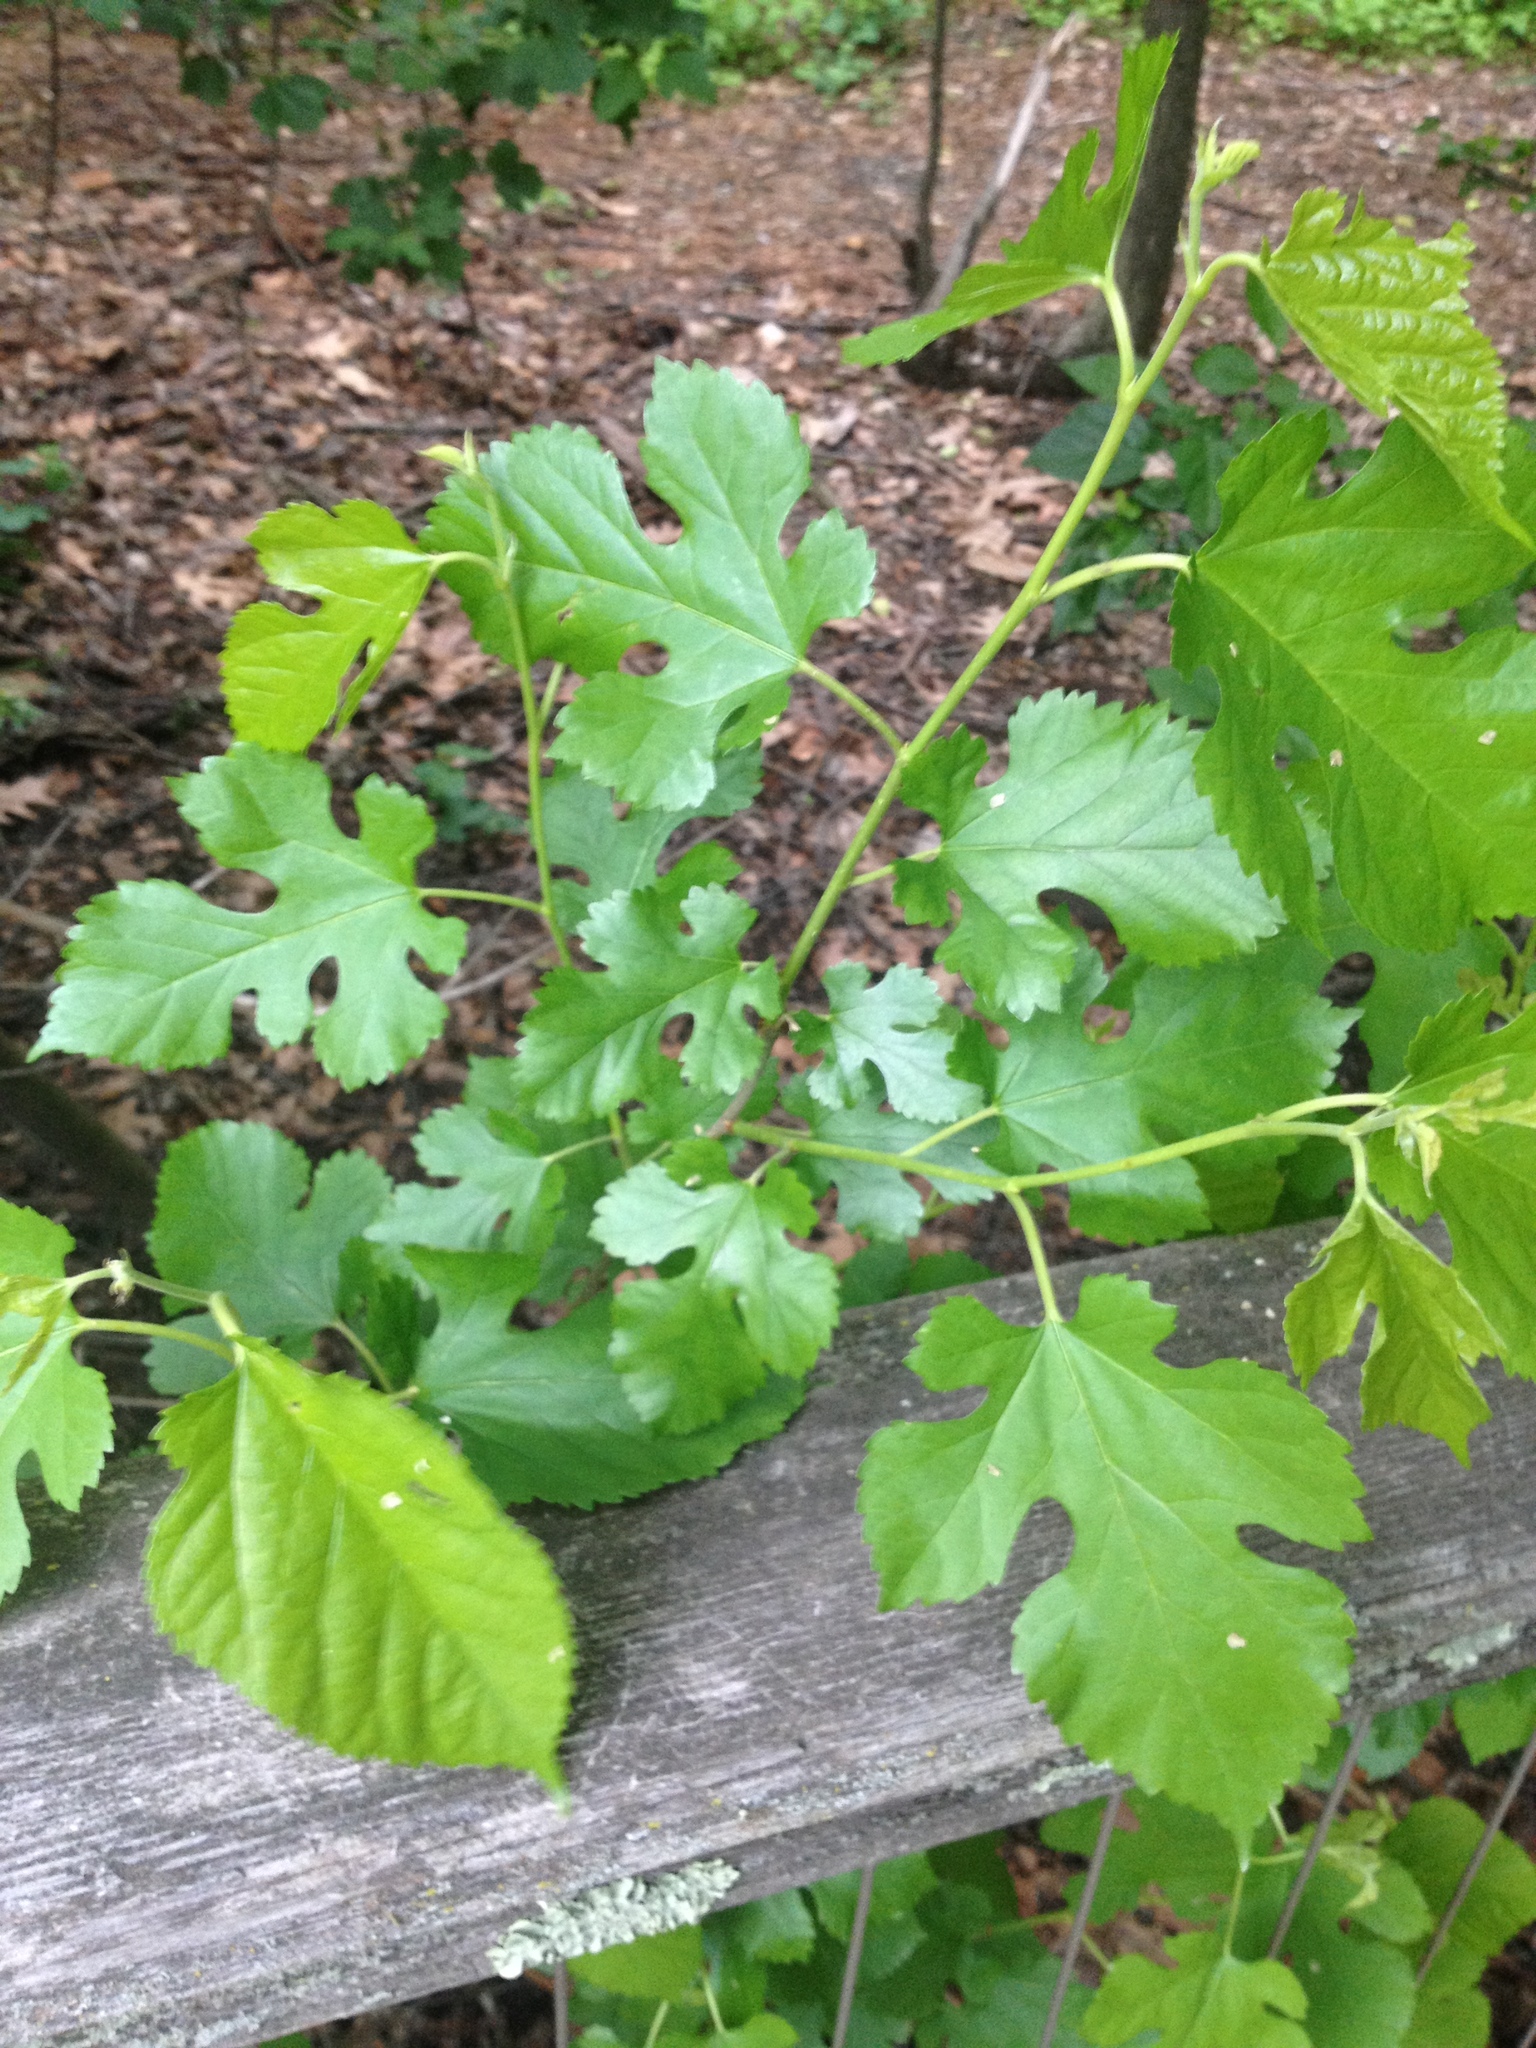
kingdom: Plantae
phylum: Tracheophyta
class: Magnoliopsida
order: Rosales
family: Moraceae
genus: Morus
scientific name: Morus alba
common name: White mulberry
